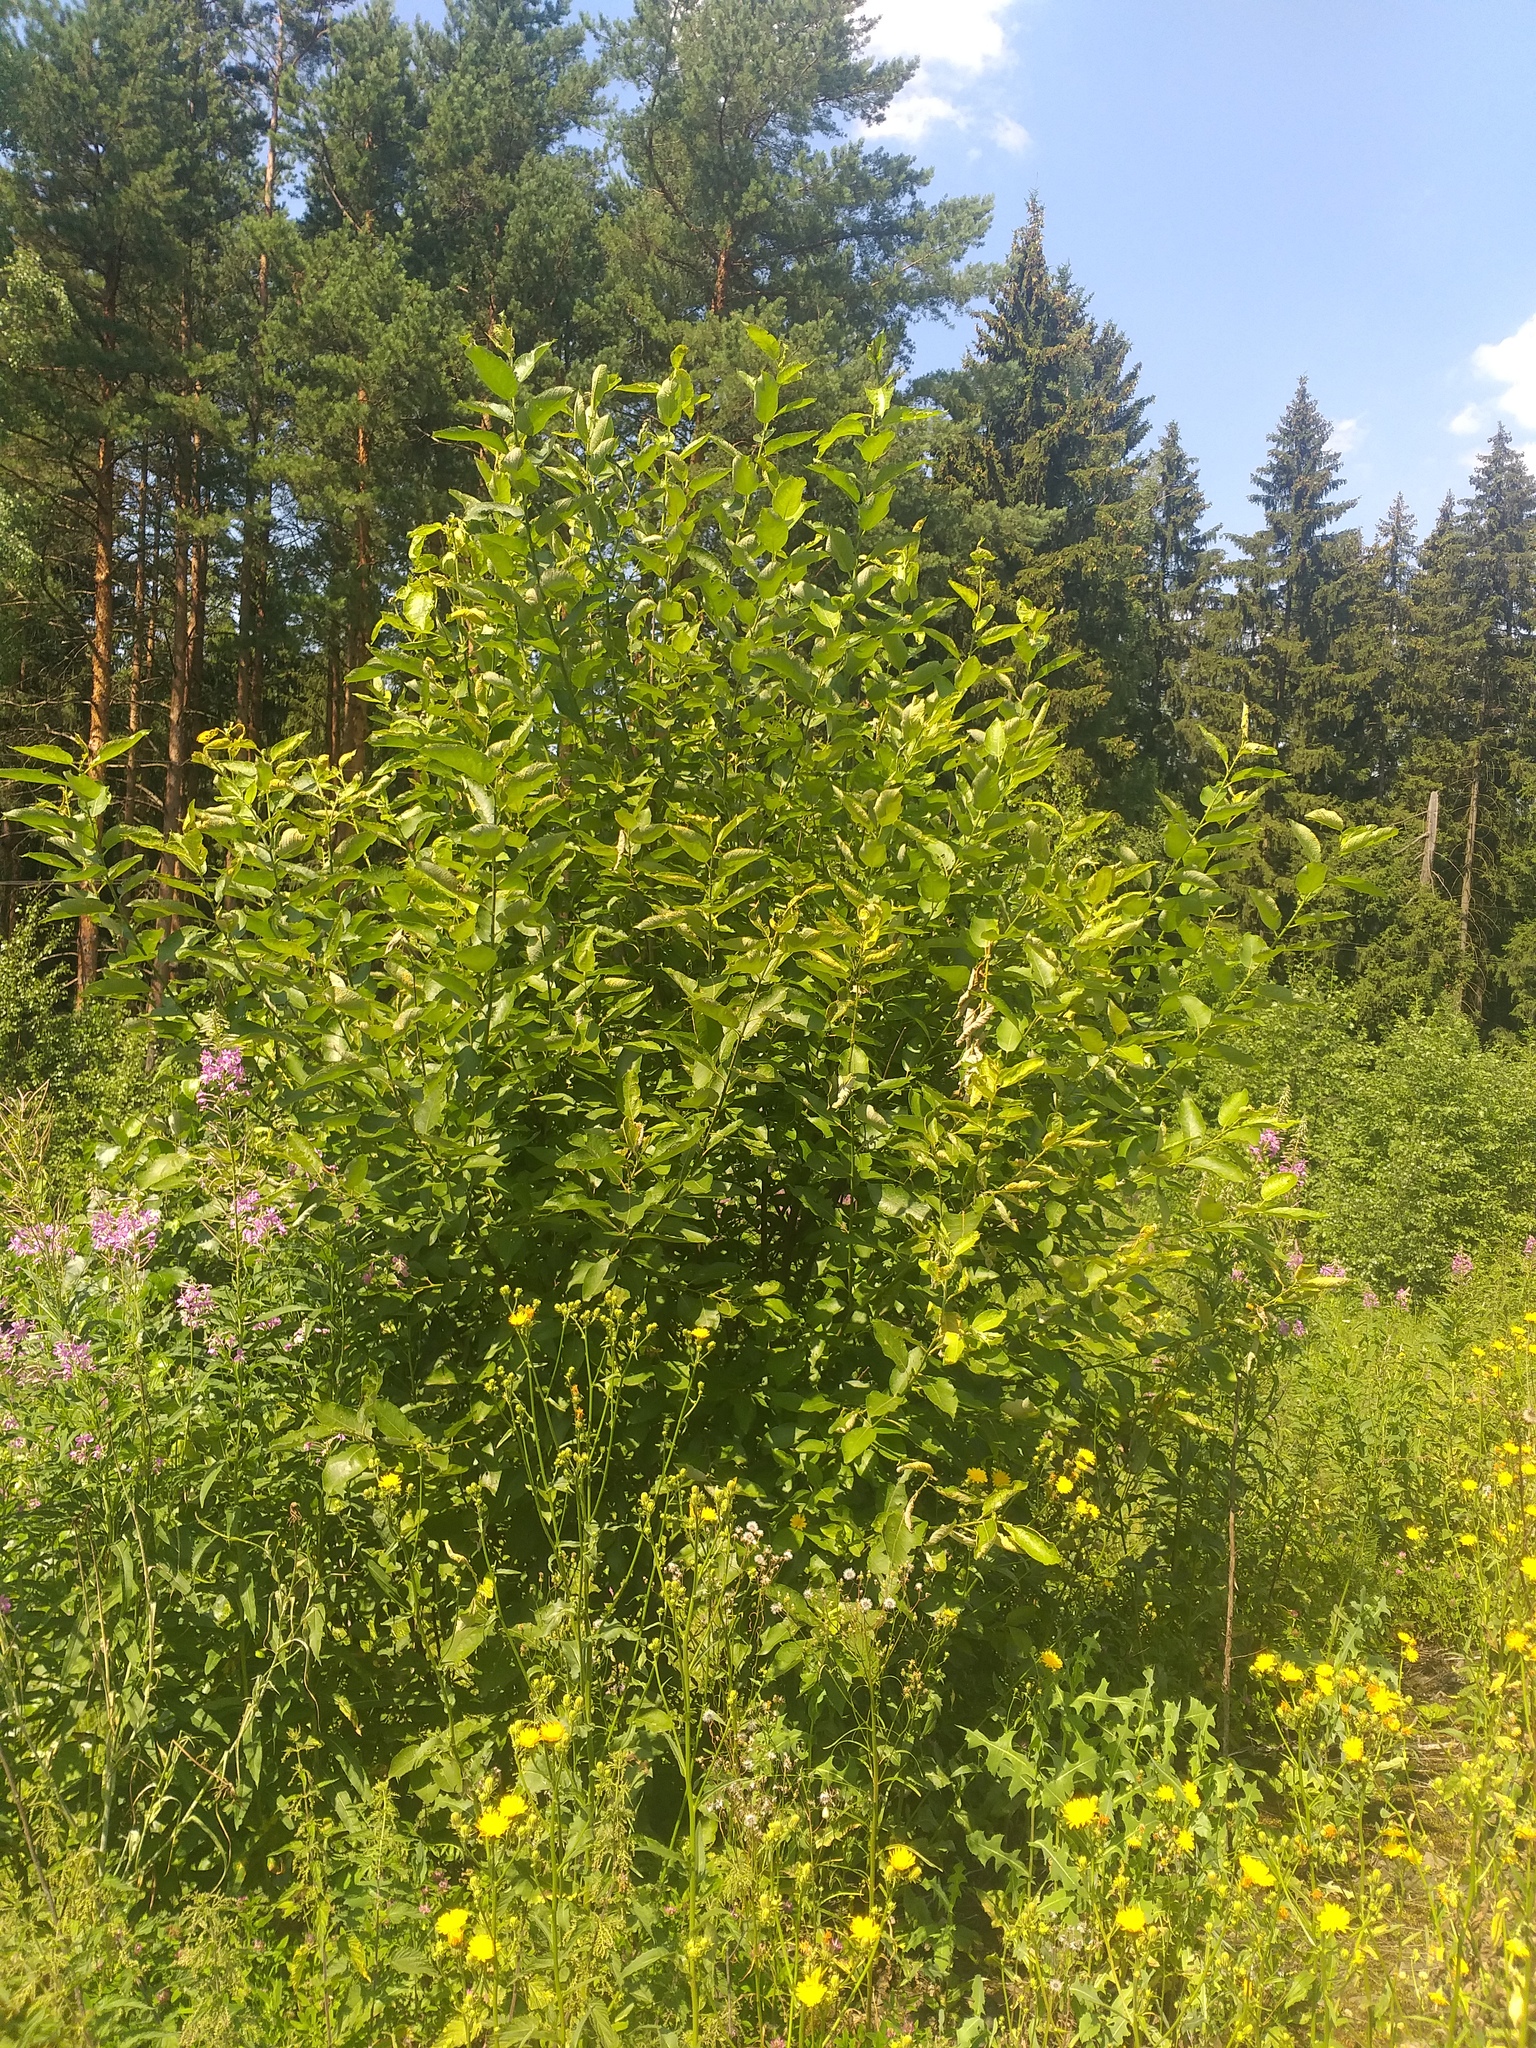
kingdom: Plantae
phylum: Tracheophyta
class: Magnoliopsida
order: Malpighiales
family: Salicaceae
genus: Salix
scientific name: Salix caprea
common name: Goat willow
